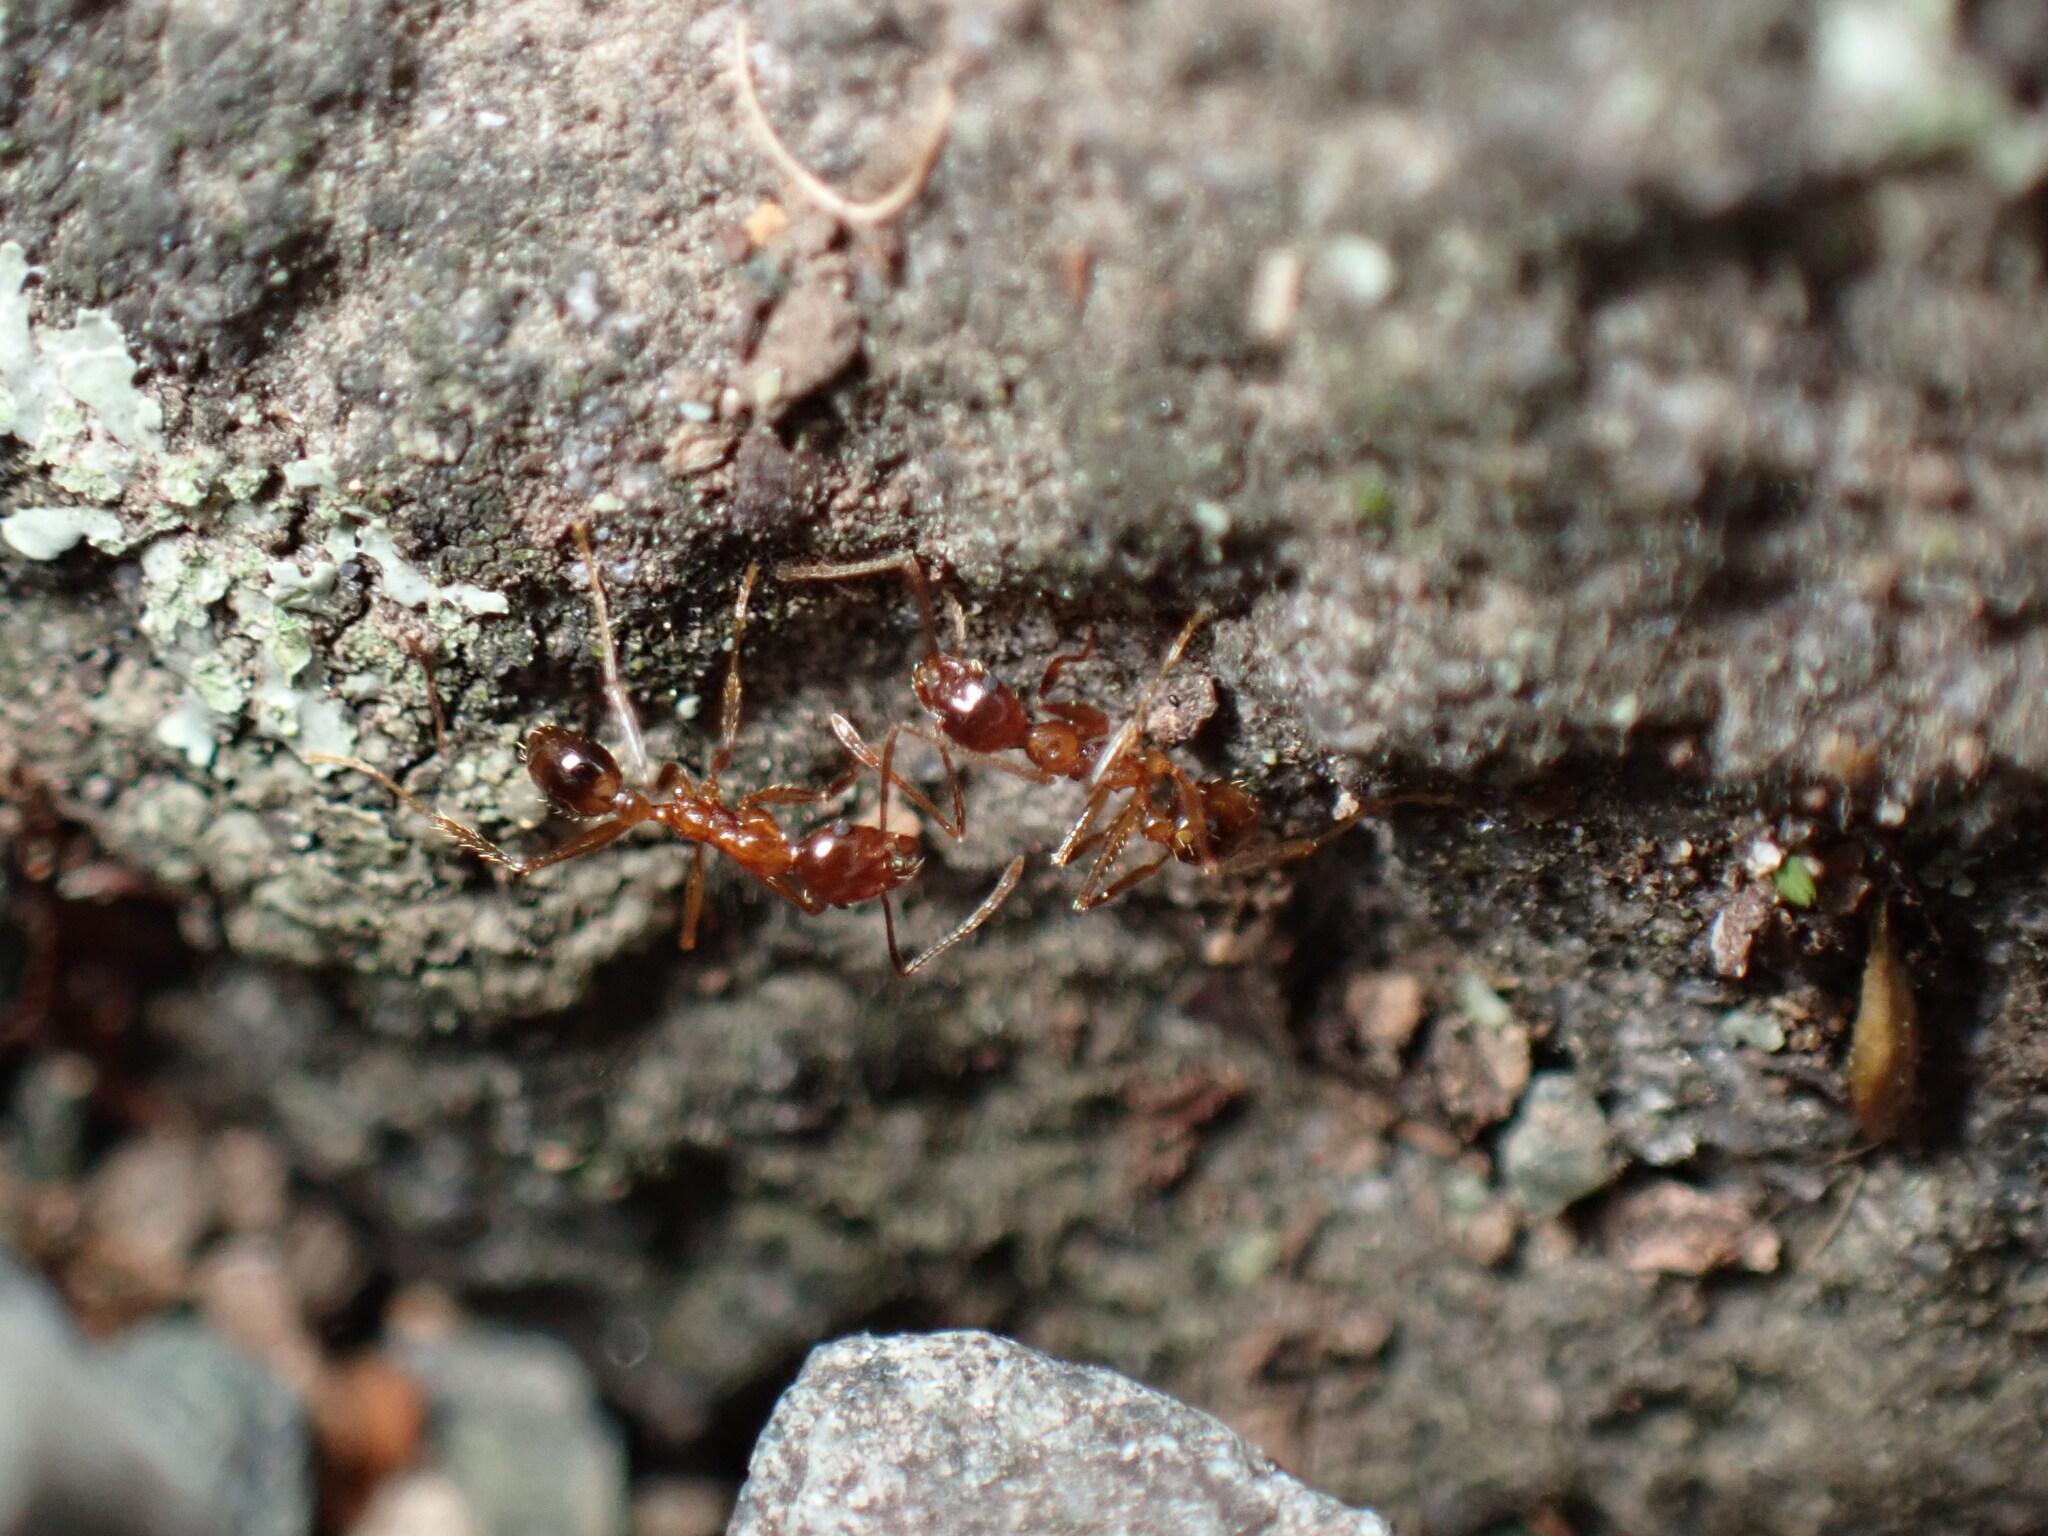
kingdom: Animalia
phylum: Arthropoda
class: Insecta
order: Hymenoptera
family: Formicidae
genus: Pheidole
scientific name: Pheidole noda
